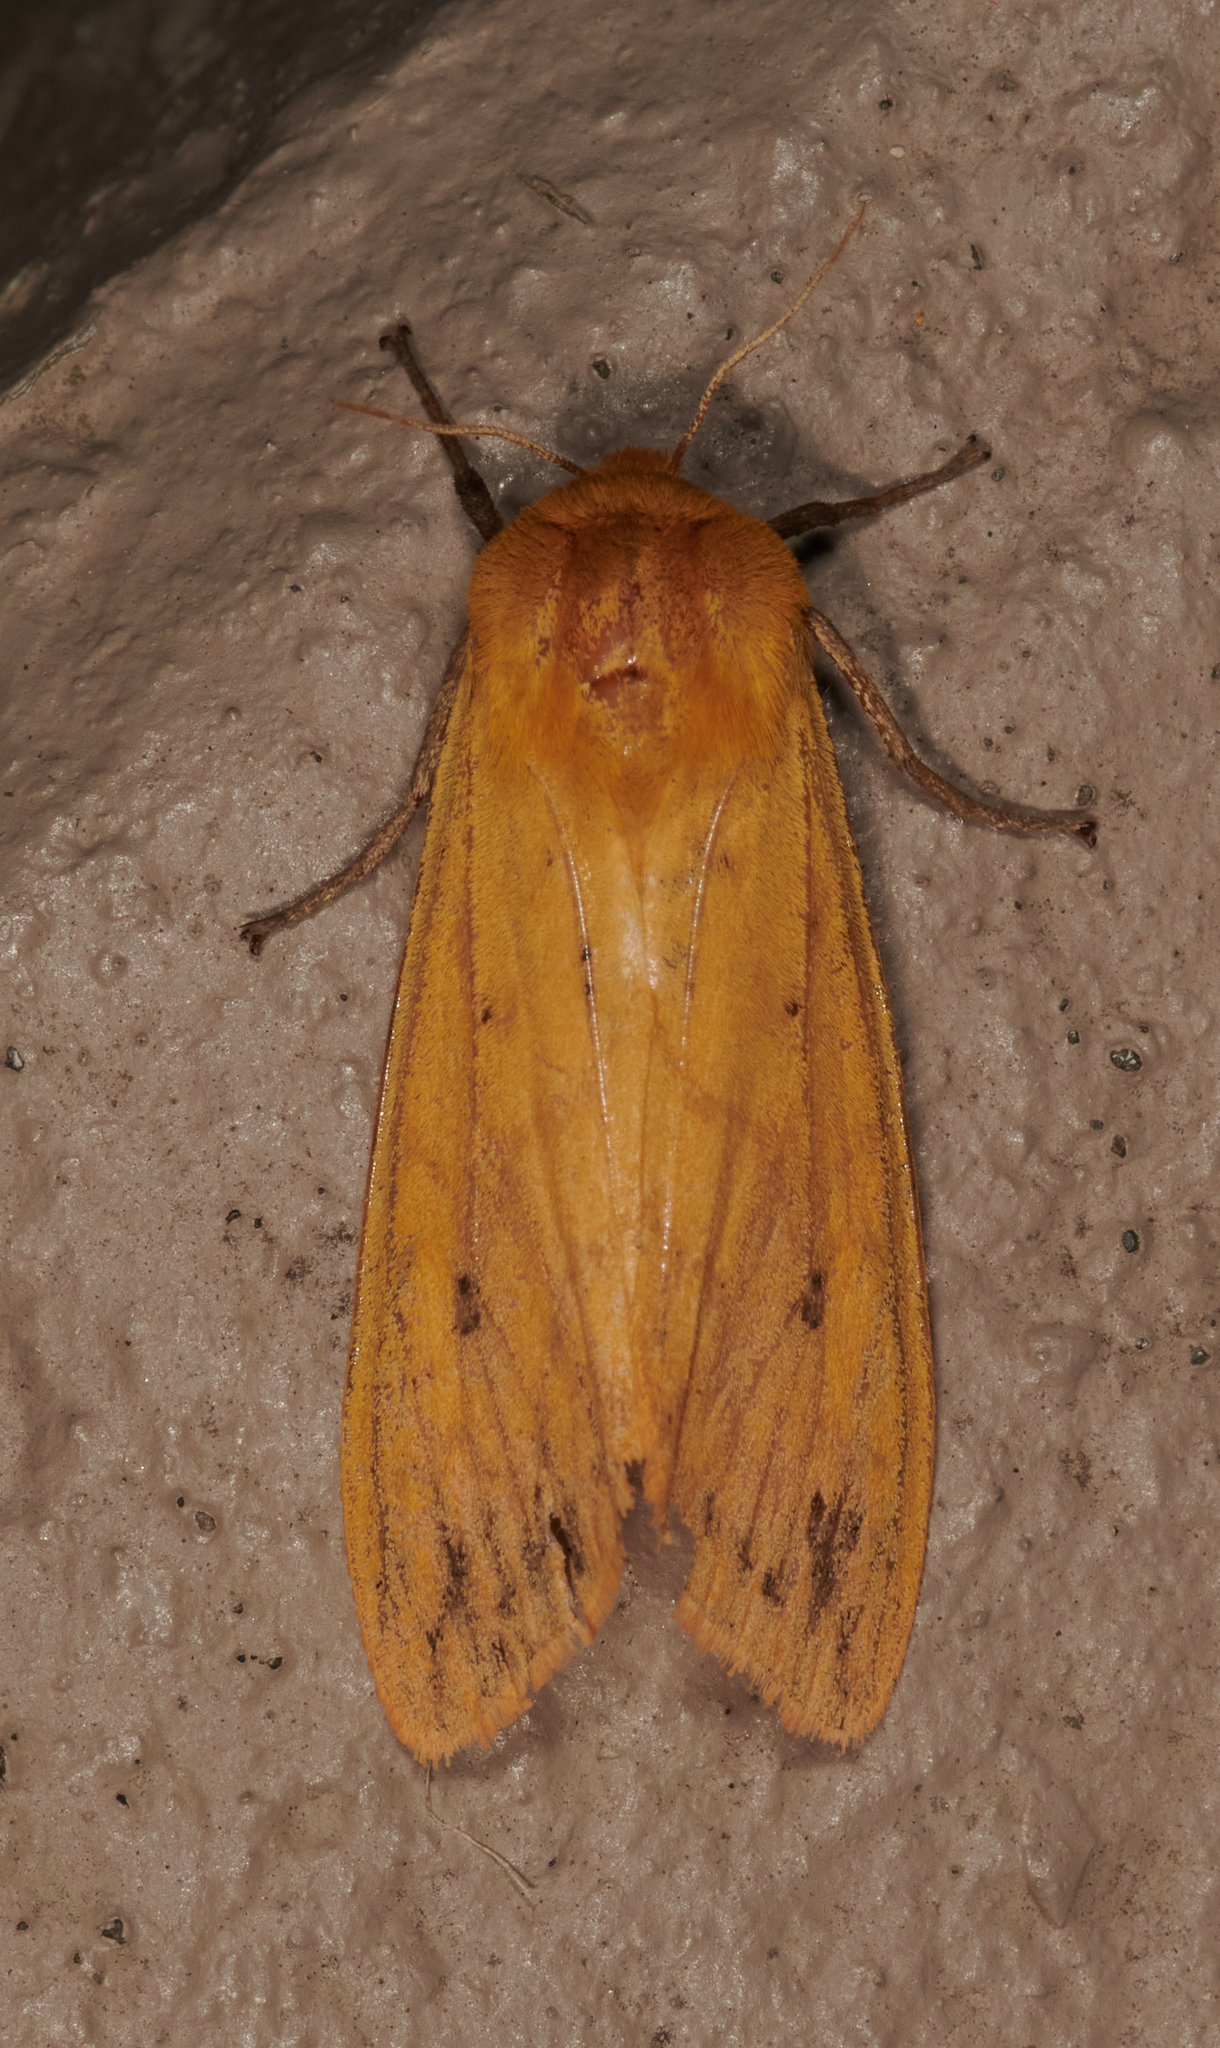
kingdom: Animalia
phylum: Arthropoda
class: Insecta
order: Lepidoptera
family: Erebidae
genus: Pyrrharctia
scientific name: Pyrrharctia isabella
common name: Isabella tiger moth
